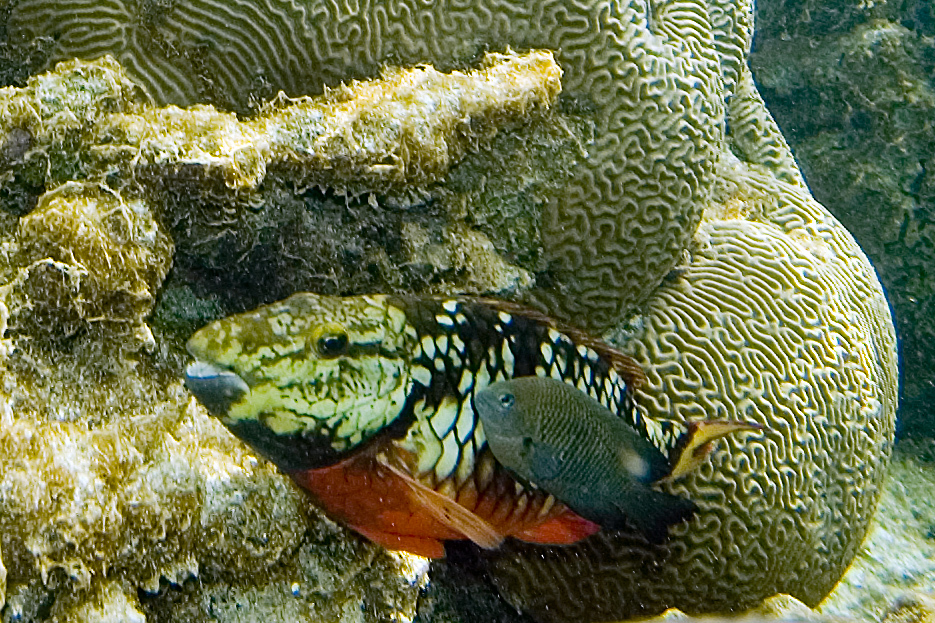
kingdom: Animalia
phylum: Chordata
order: Perciformes
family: Pomacentridae
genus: Stegastes
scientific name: Stegastes planifrons
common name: Threespot damselfish
